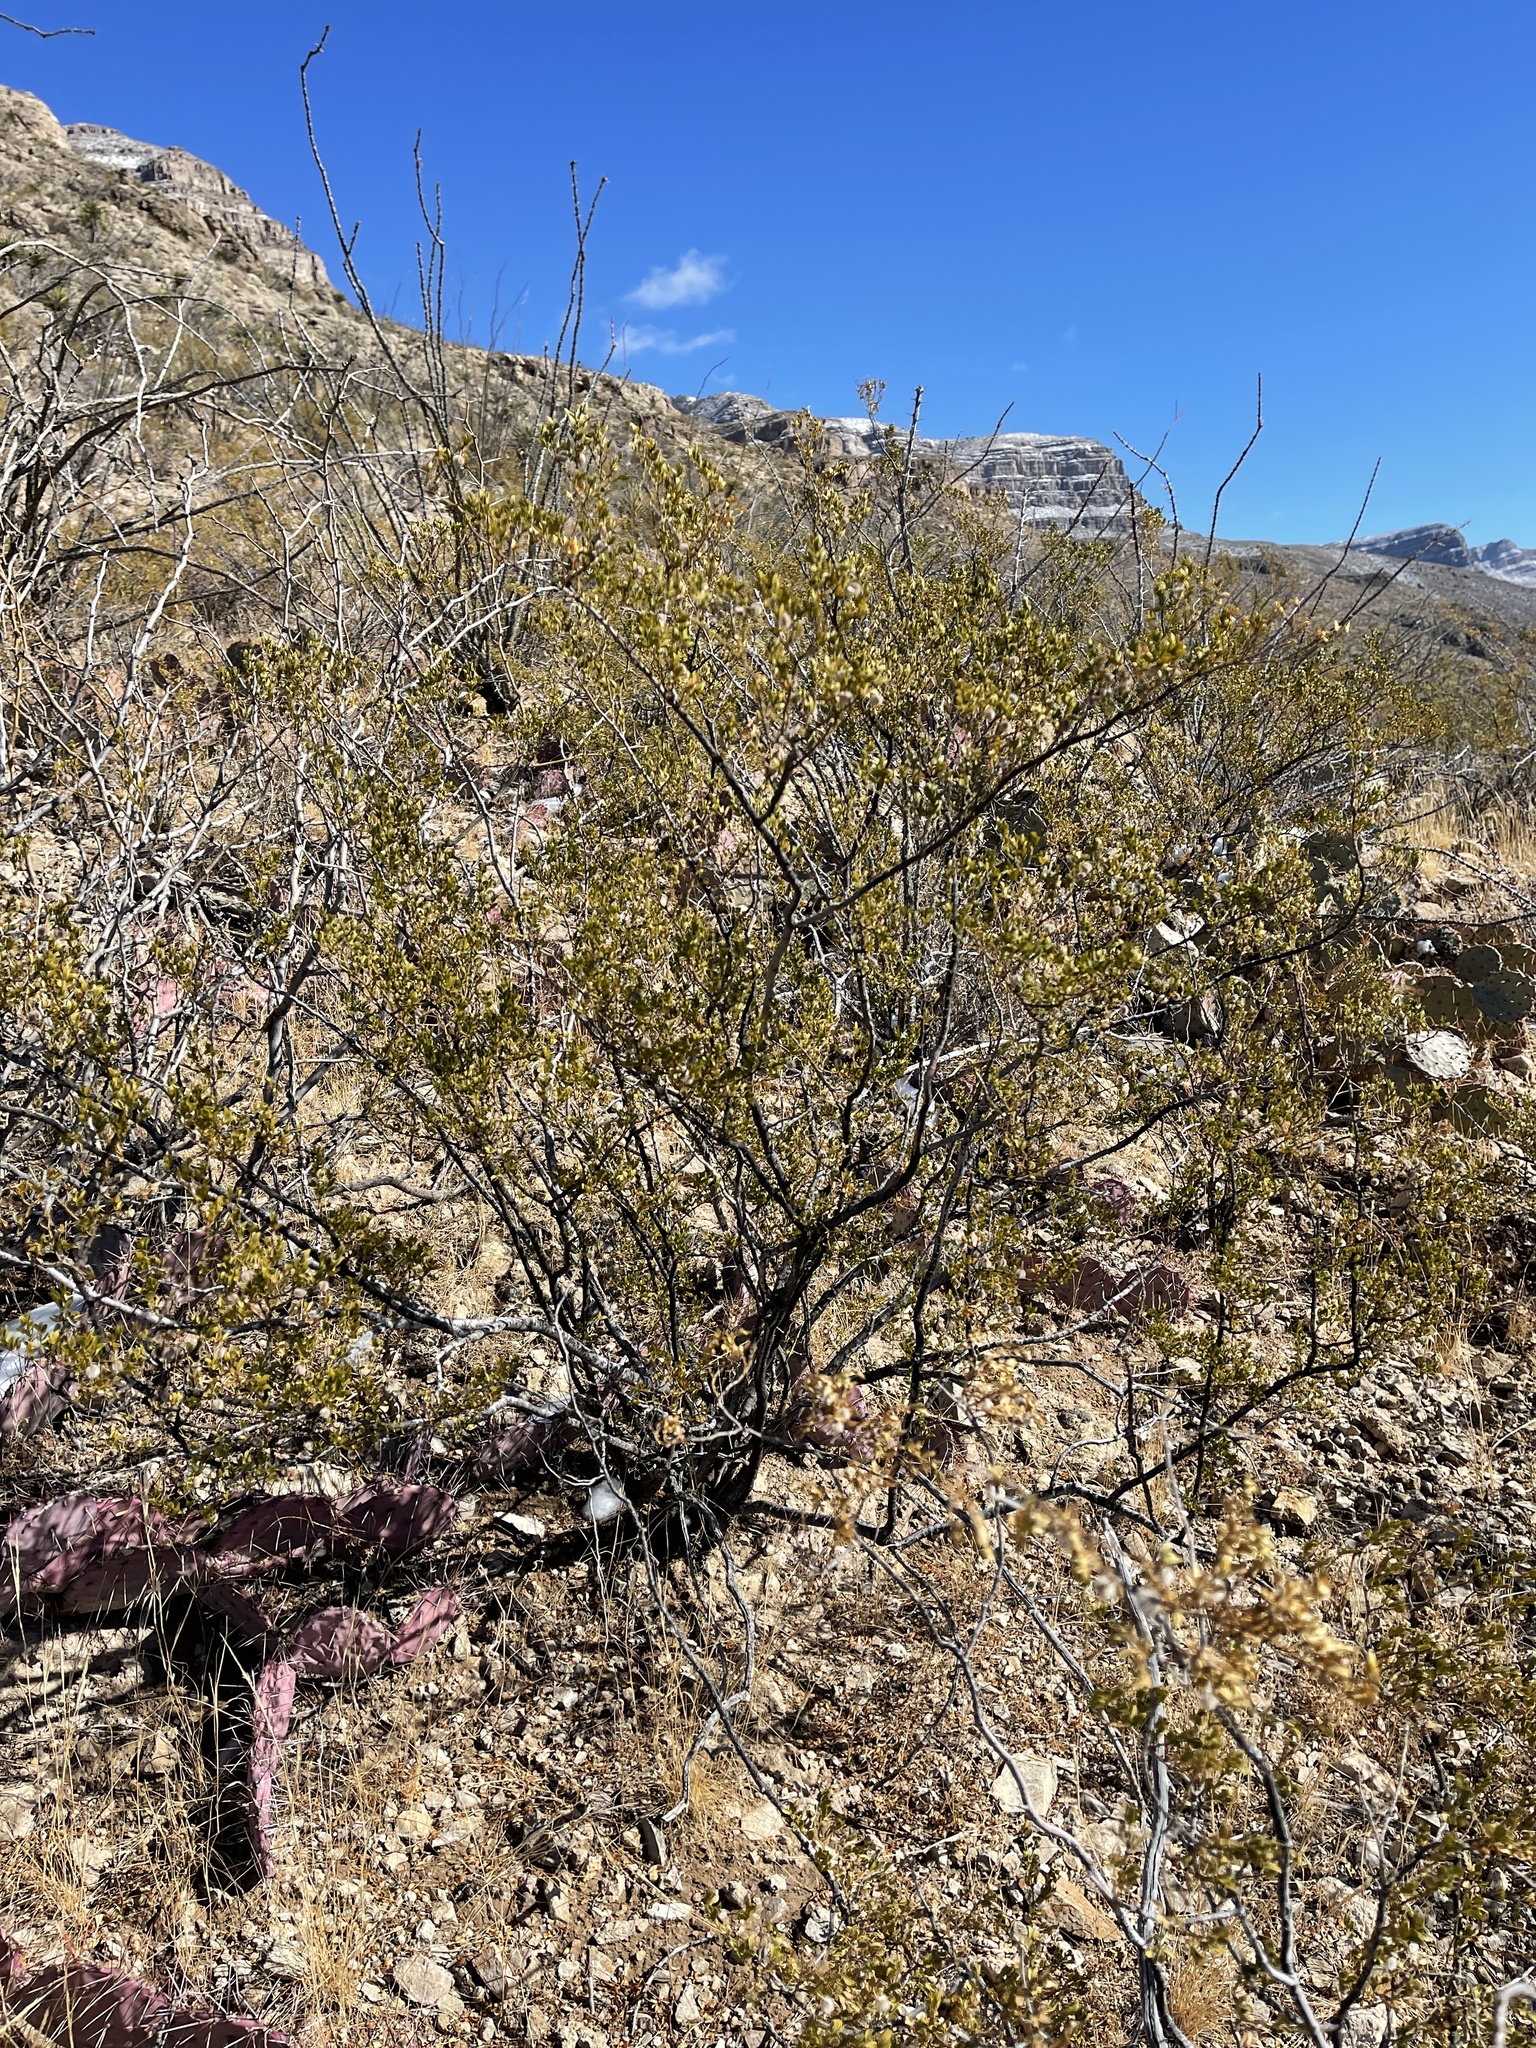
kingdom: Plantae
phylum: Tracheophyta
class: Magnoliopsida
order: Zygophyllales
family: Zygophyllaceae
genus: Larrea
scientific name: Larrea tridentata
